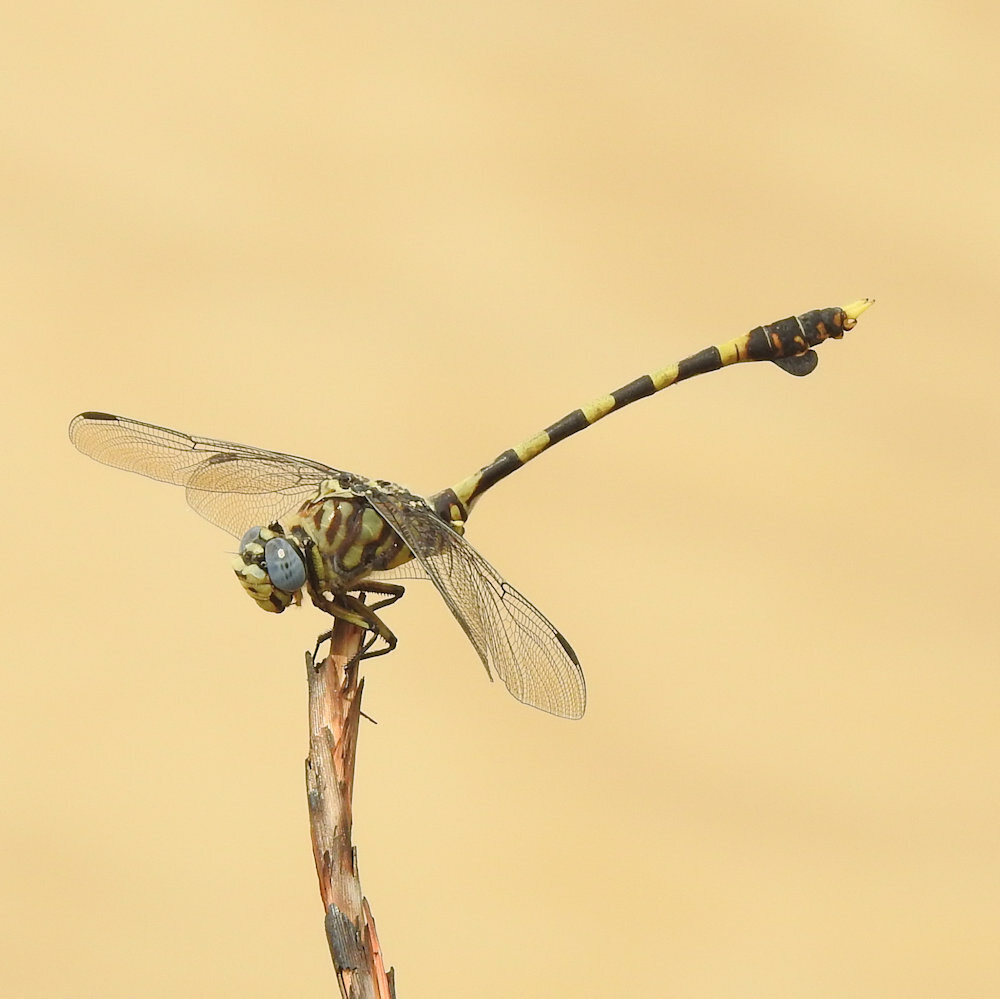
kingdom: Animalia
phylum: Arthropoda
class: Insecta
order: Odonata
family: Gomphidae
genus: Ictinogomphus
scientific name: Ictinogomphus ferox
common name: Common tiger
